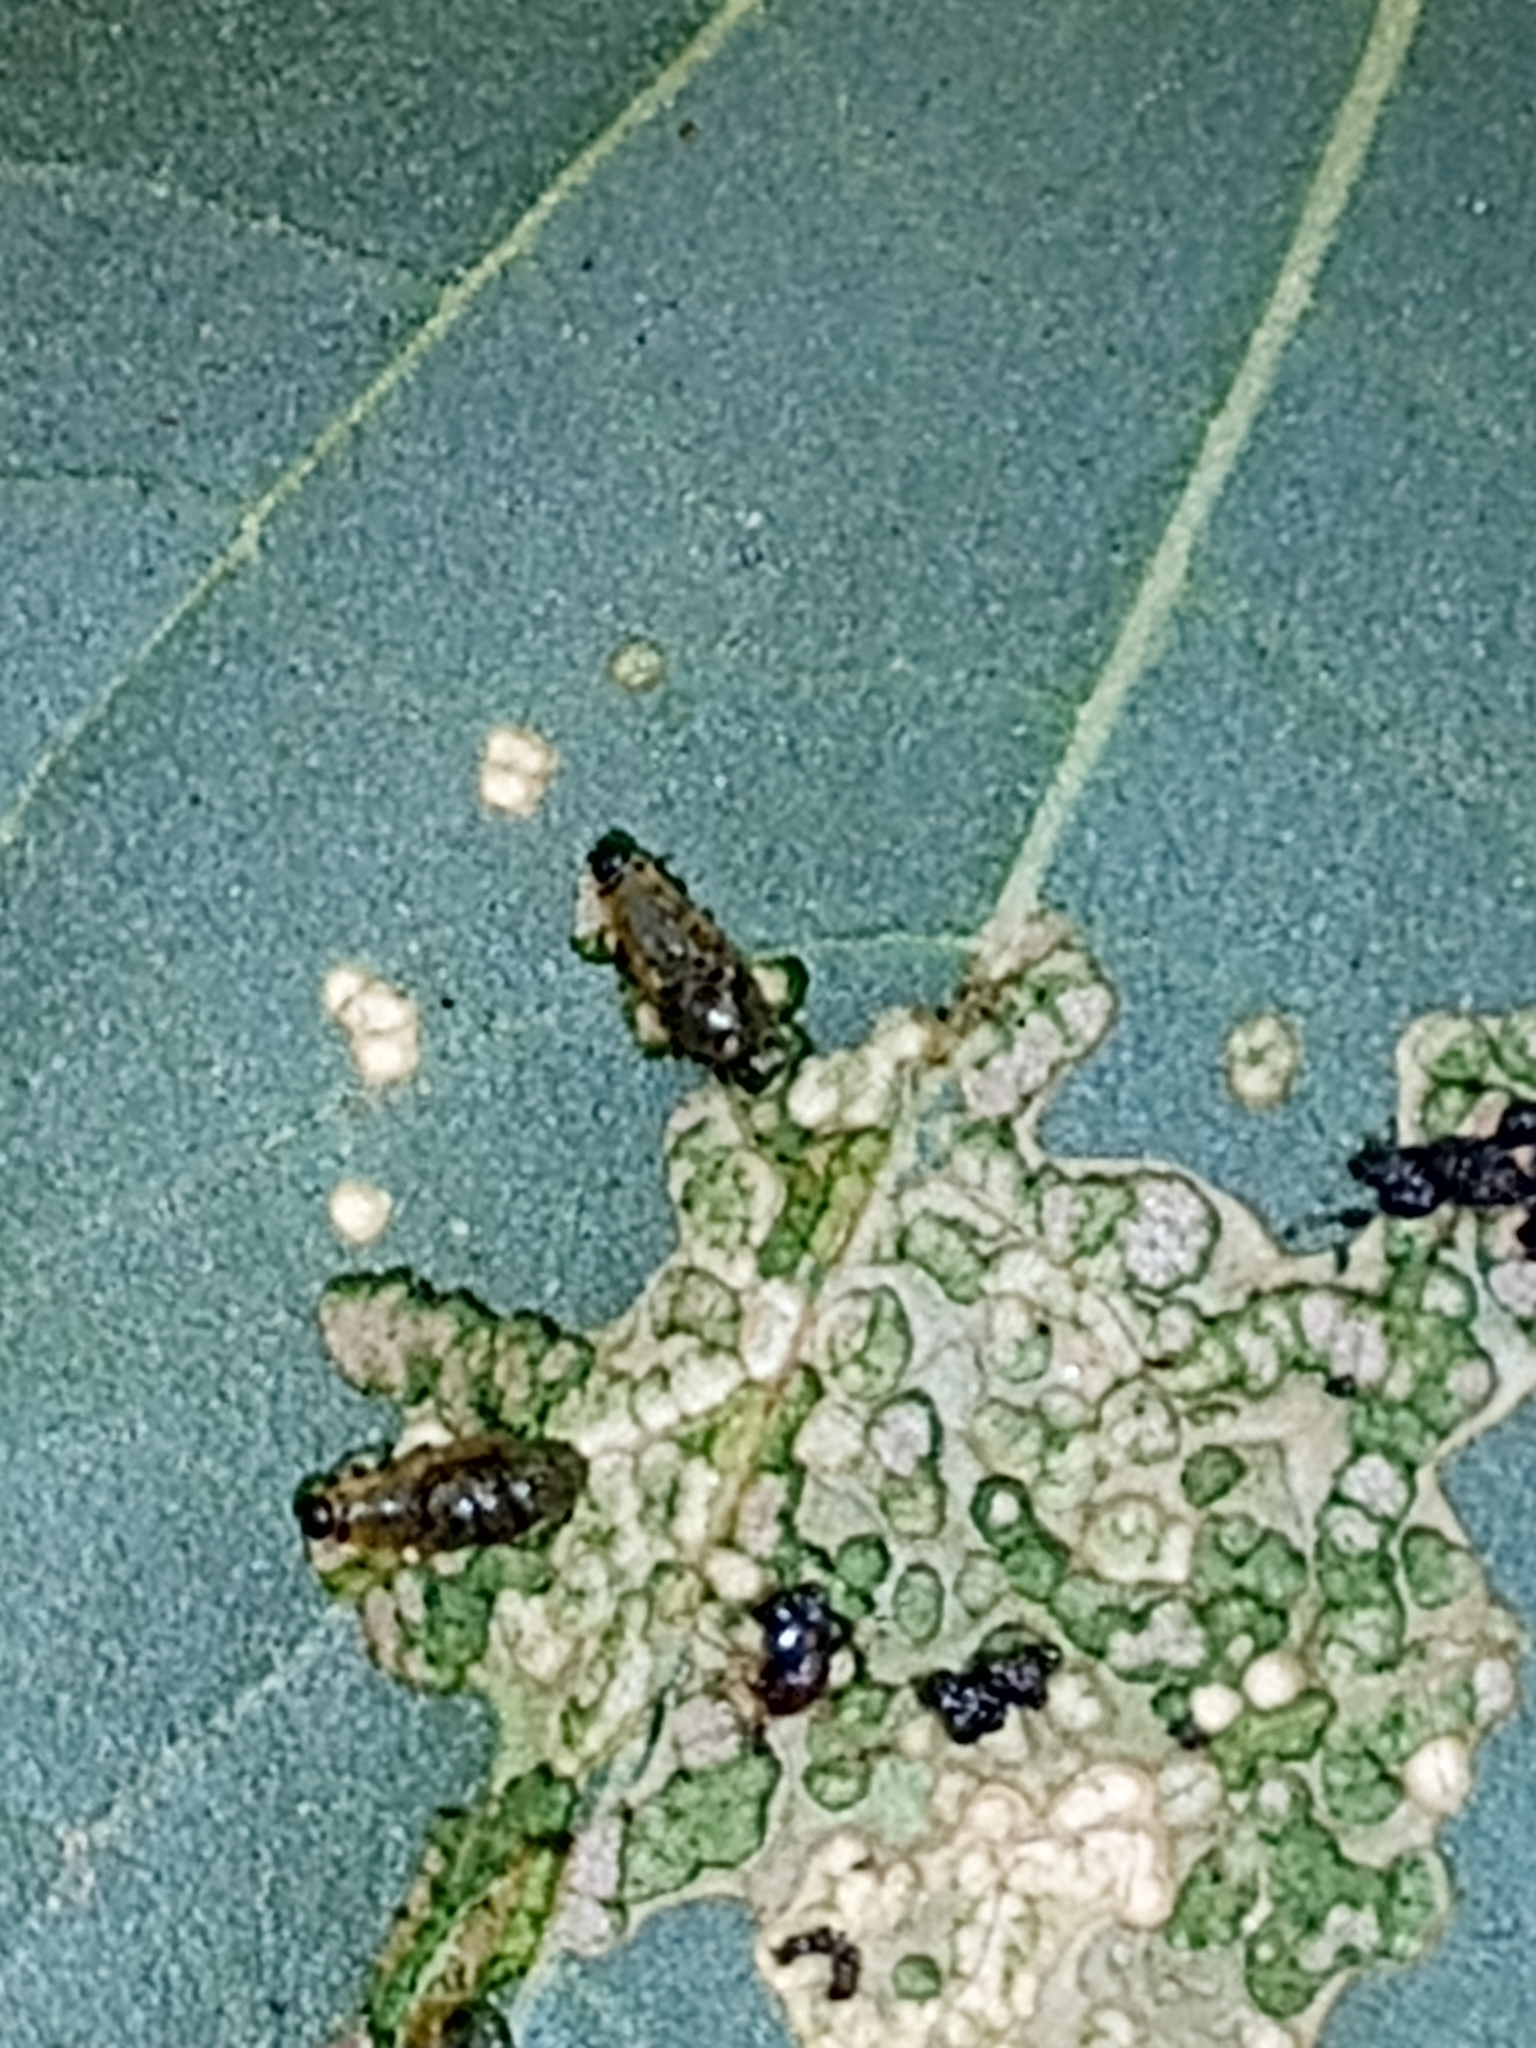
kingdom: Animalia
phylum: Arthropoda
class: Insecta
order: Coleoptera
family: Chrysomelidae
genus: Lema
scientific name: Lema daturaphila
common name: Leaf beetle
